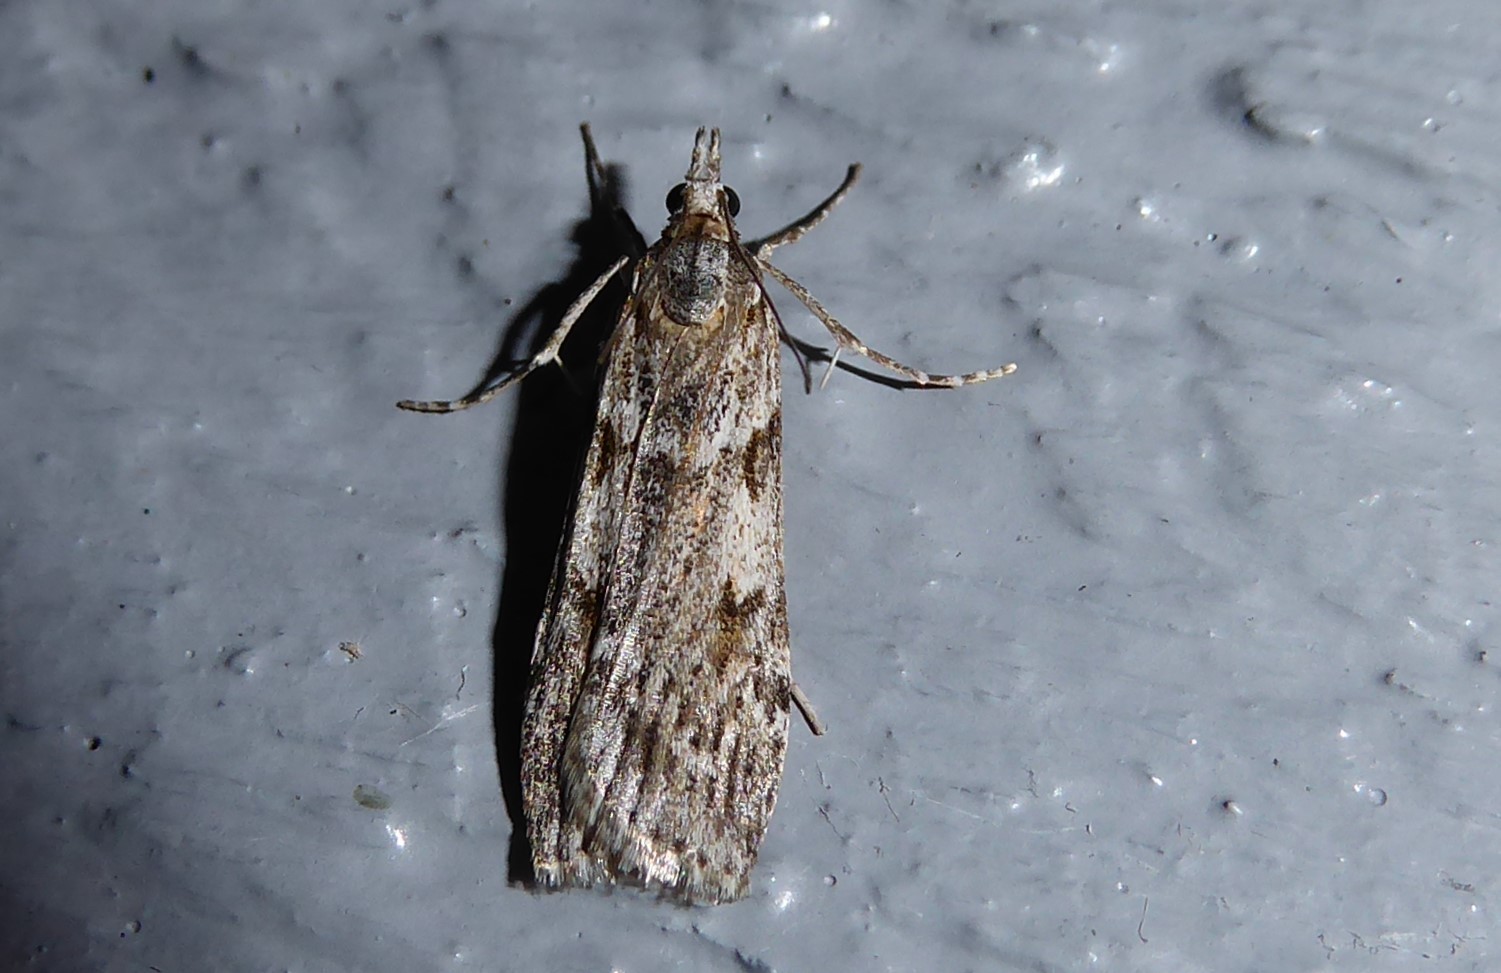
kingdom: Animalia
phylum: Arthropoda
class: Insecta
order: Lepidoptera
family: Crambidae
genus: Scoparia
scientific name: Scoparia halopis
